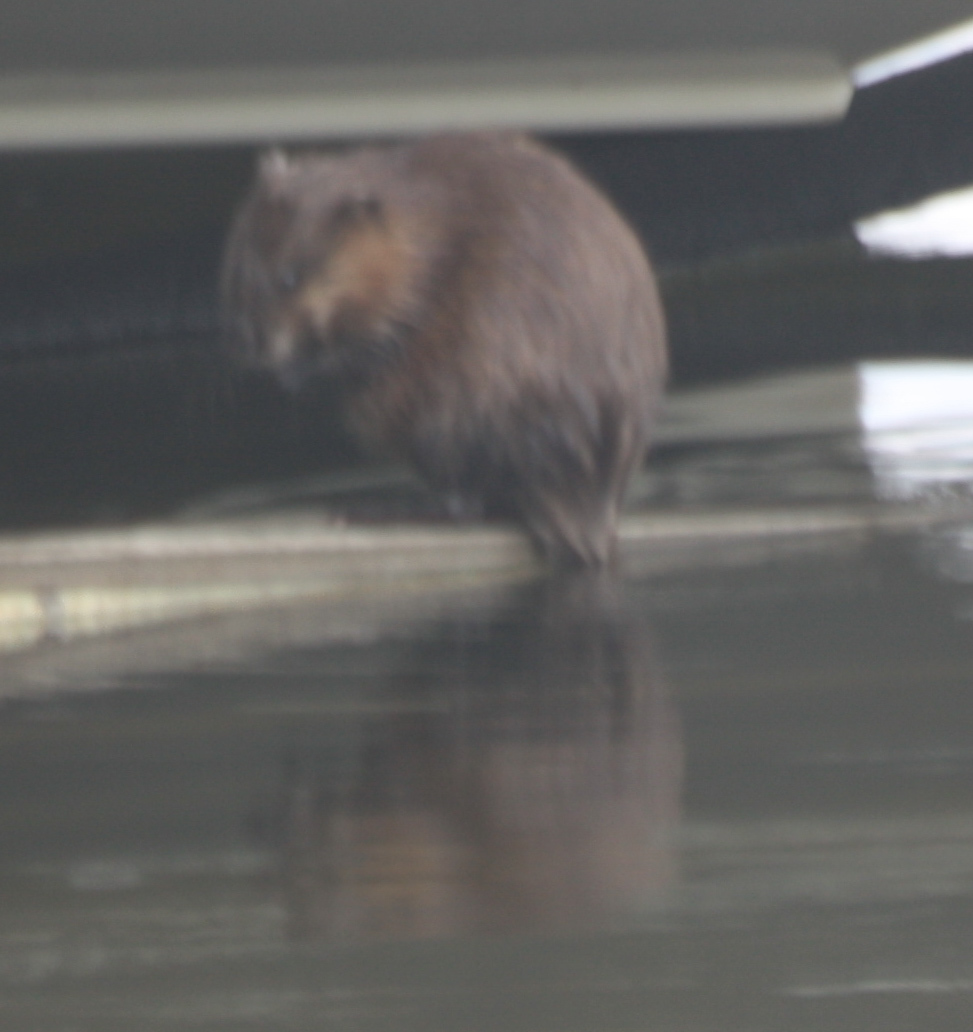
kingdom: Animalia
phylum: Chordata
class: Mammalia
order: Rodentia
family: Cricetidae
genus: Ondatra
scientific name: Ondatra zibethicus
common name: Muskrat
